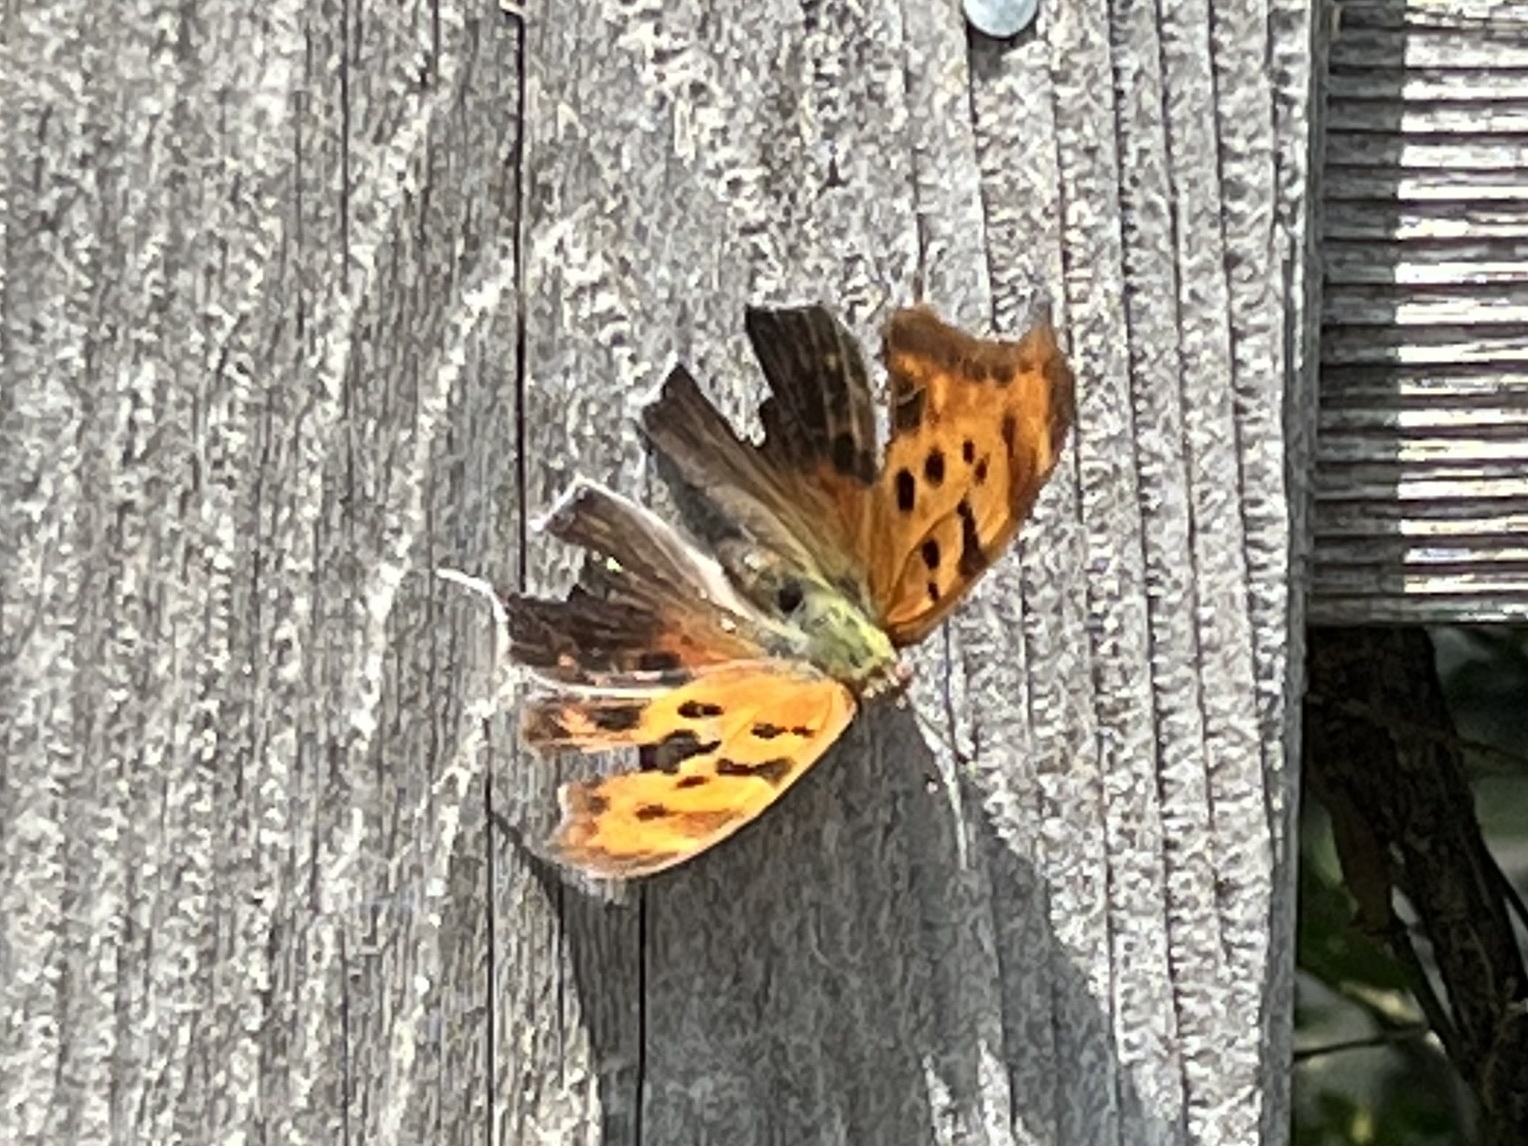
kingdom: Animalia
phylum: Arthropoda
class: Insecta
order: Lepidoptera
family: Nymphalidae
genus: Polygonia
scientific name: Polygonia interrogationis
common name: Question mark
